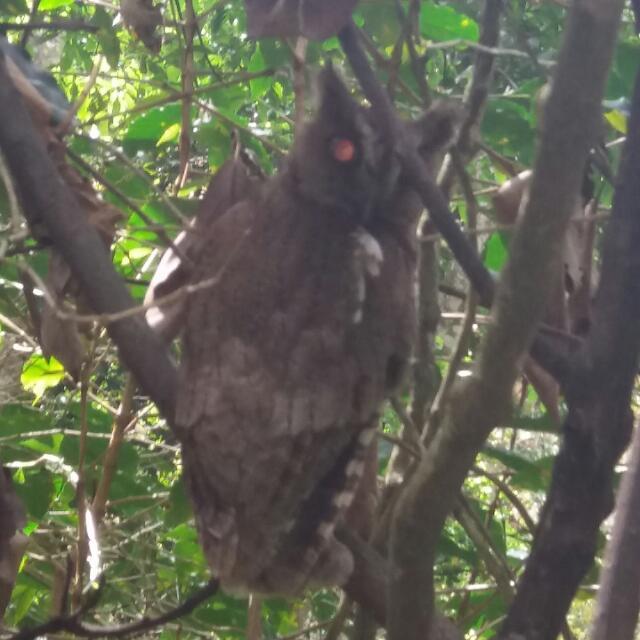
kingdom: Animalia
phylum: Chordata
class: Aves
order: Strigiformes
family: Strigidae
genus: Megascops
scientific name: Megascops guatemalae
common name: Vermiculated screech-owl
